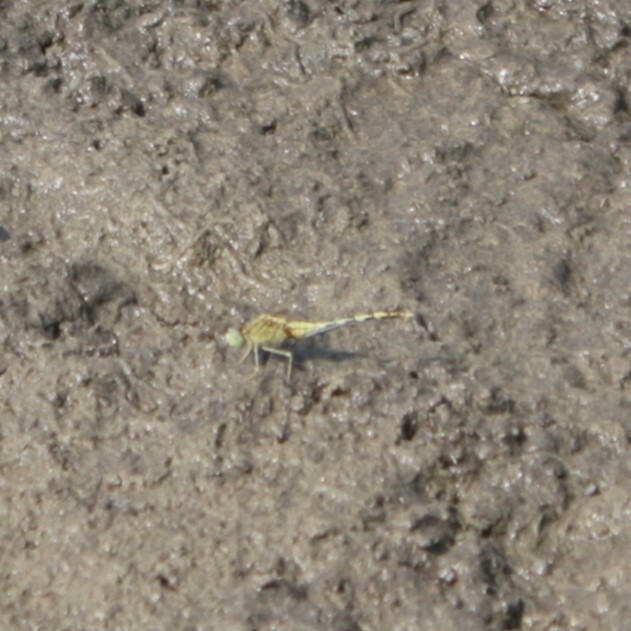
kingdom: Animalia
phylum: Arthropoda
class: Insecta
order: Odonata
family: Libellulidae
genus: Diplacodes
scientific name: Diplacodes trivialis
